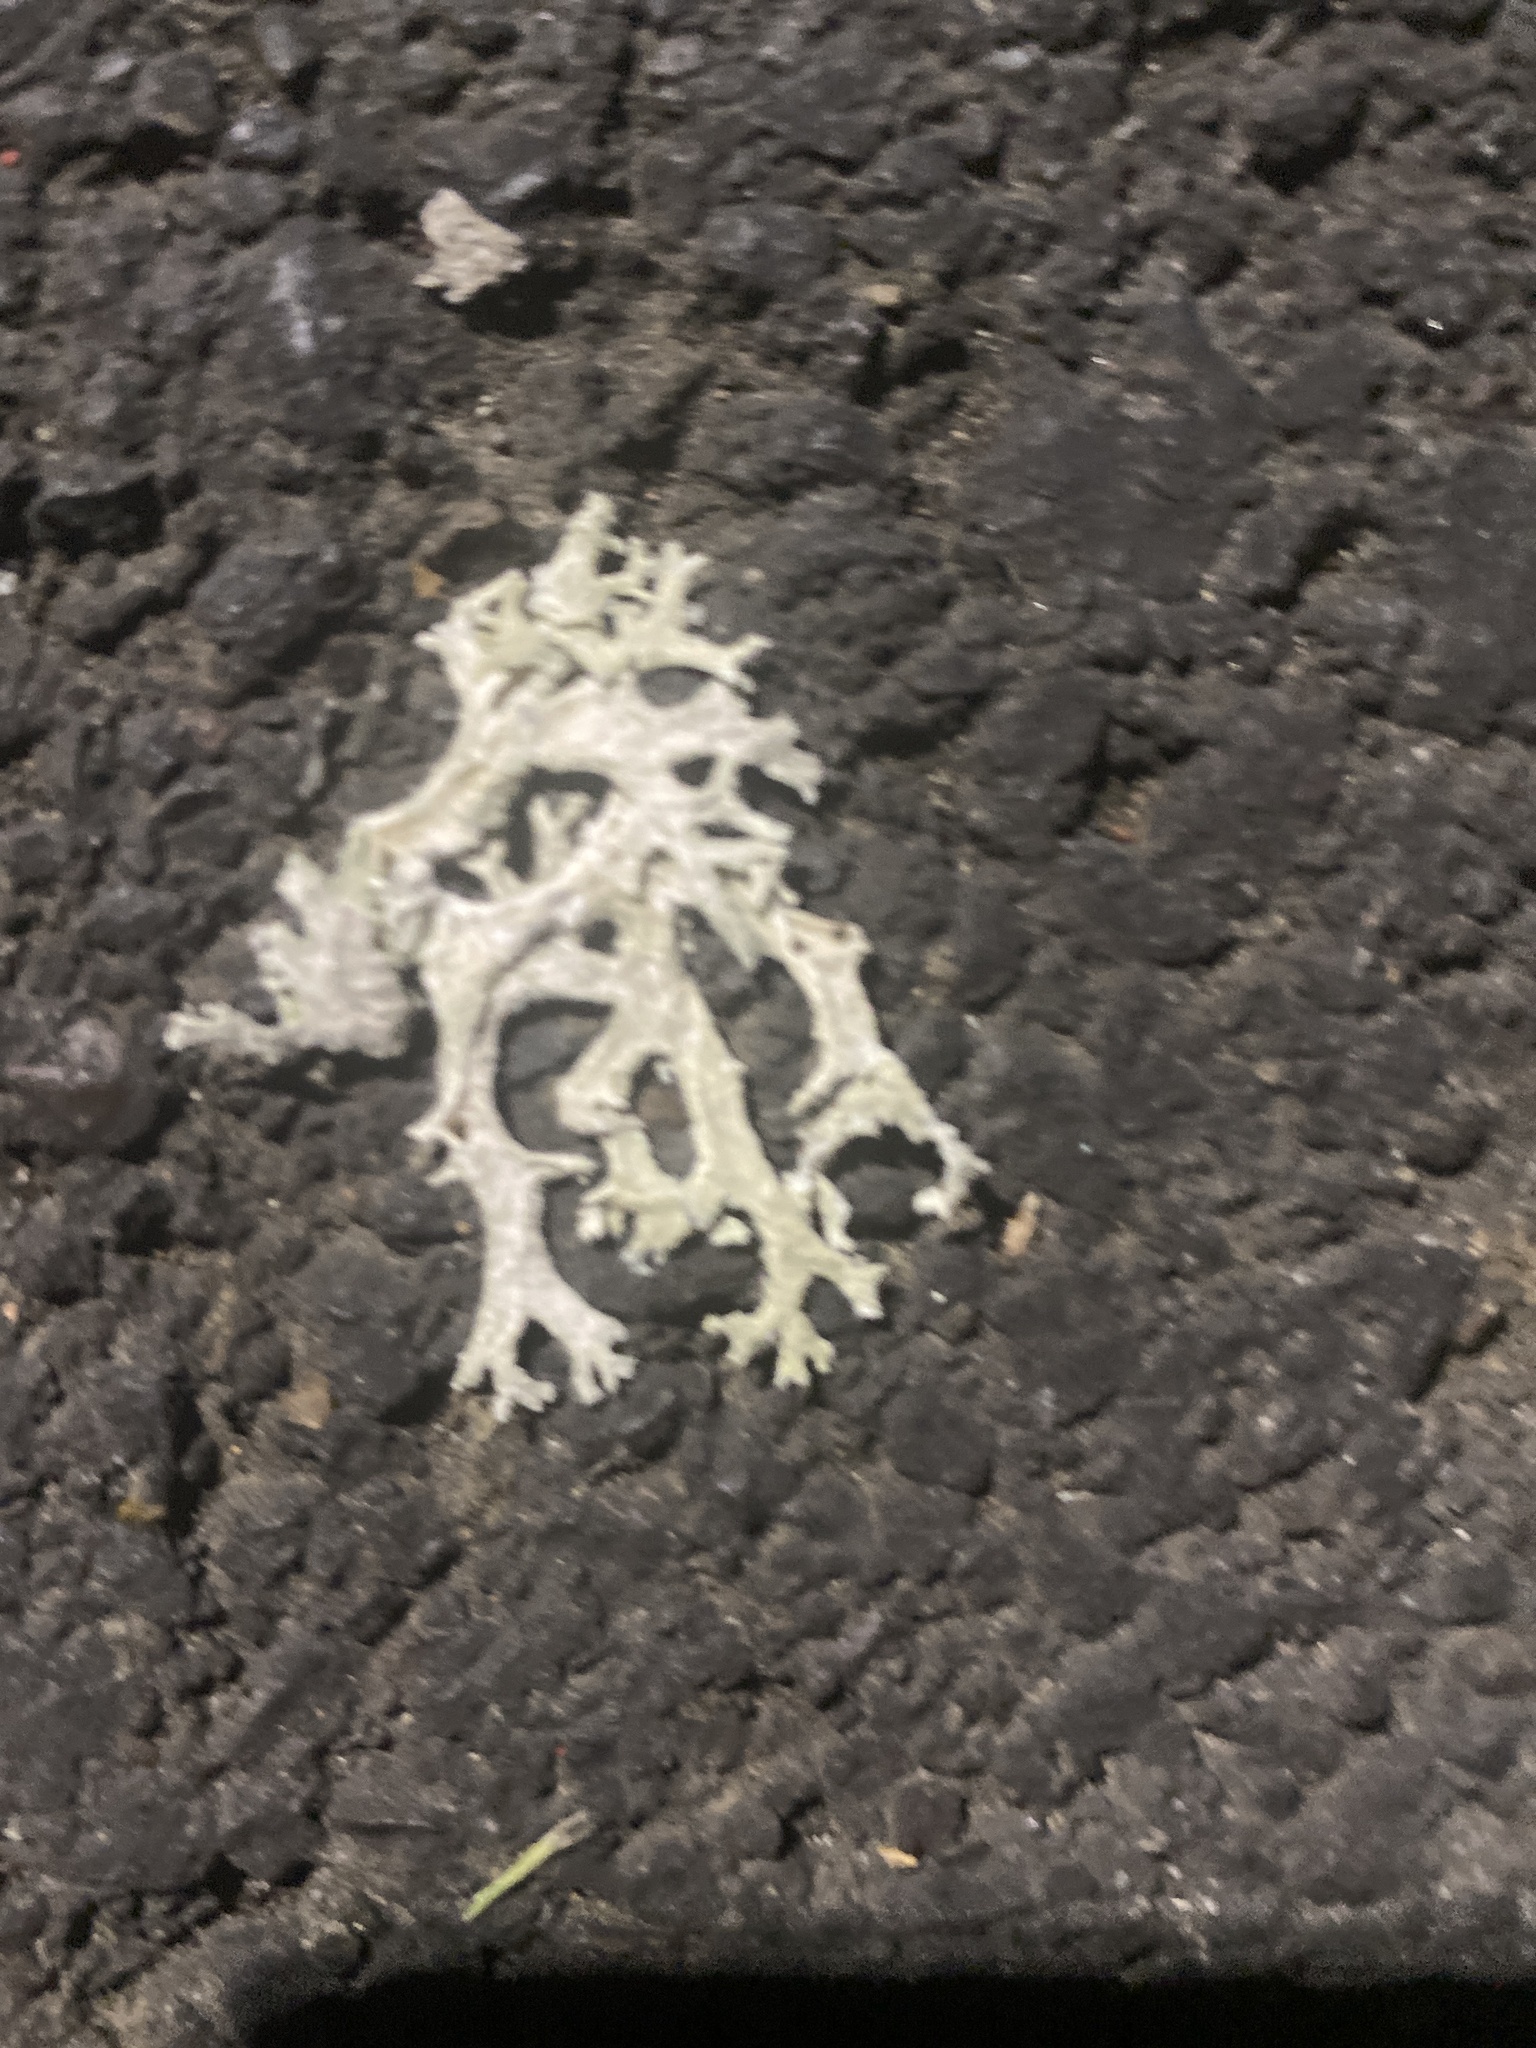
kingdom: Fungi
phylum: Ascomycota
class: Lecanoromycetes
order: Lecanorales
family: Parmeliaceae
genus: Evernia
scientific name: Evernia prunastri
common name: Oak moss
